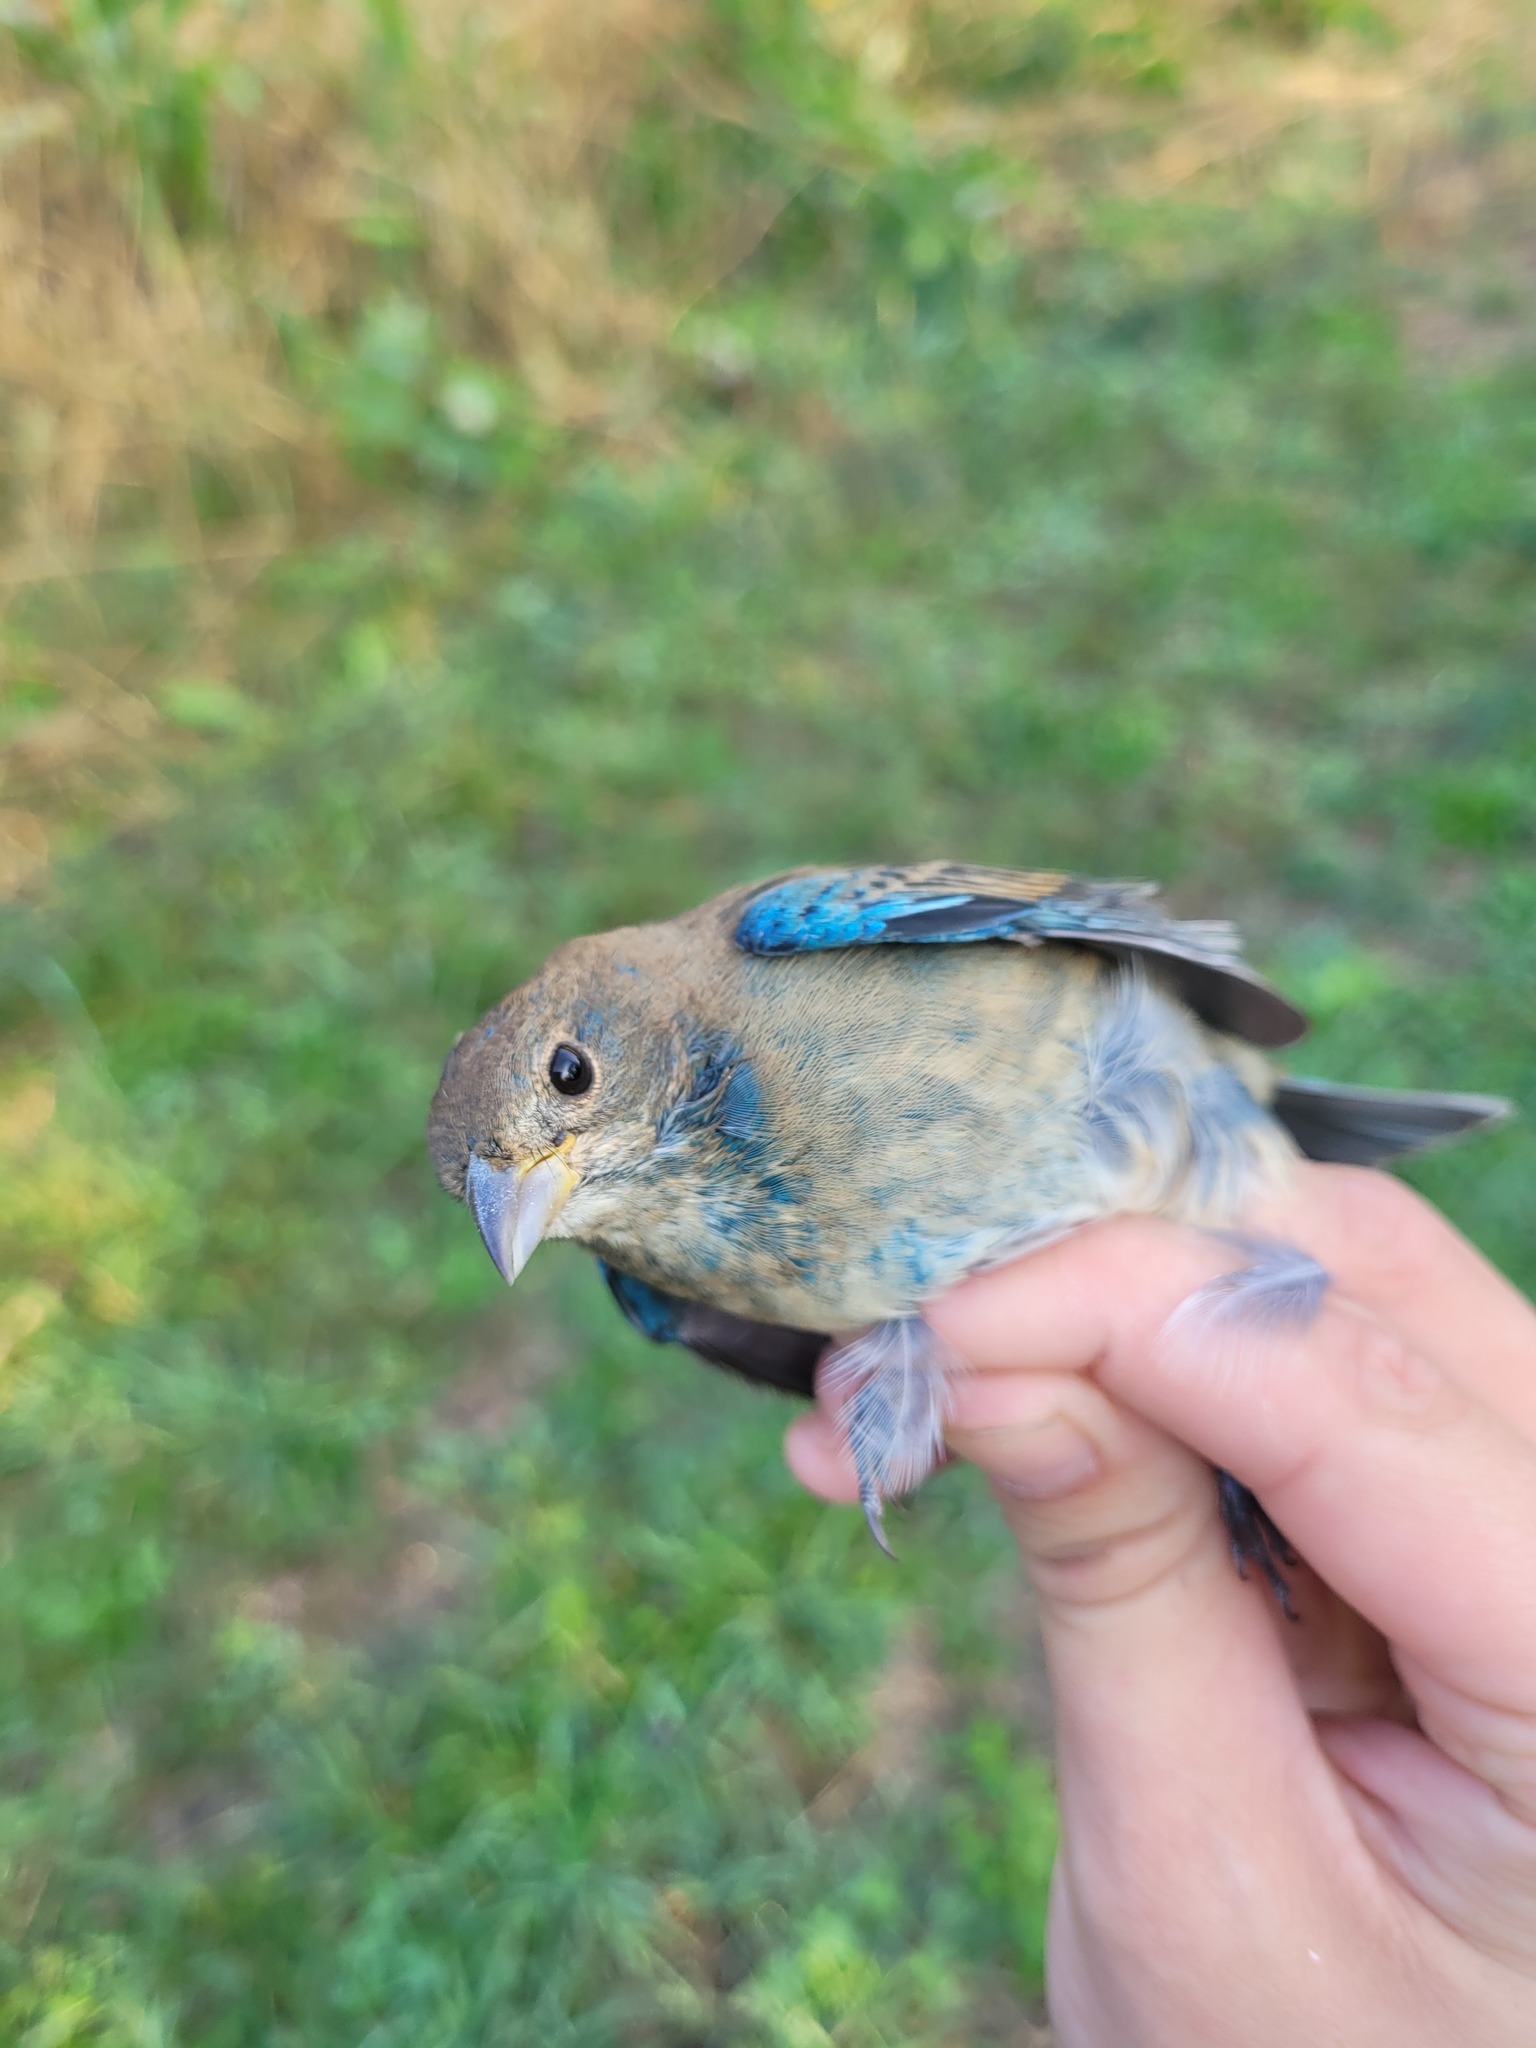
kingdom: Animalia
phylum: Chordata
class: Aves
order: Passeriformes
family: Cardinalidae
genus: Passerina
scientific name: Passerina cyanea
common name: Indigo bunting
